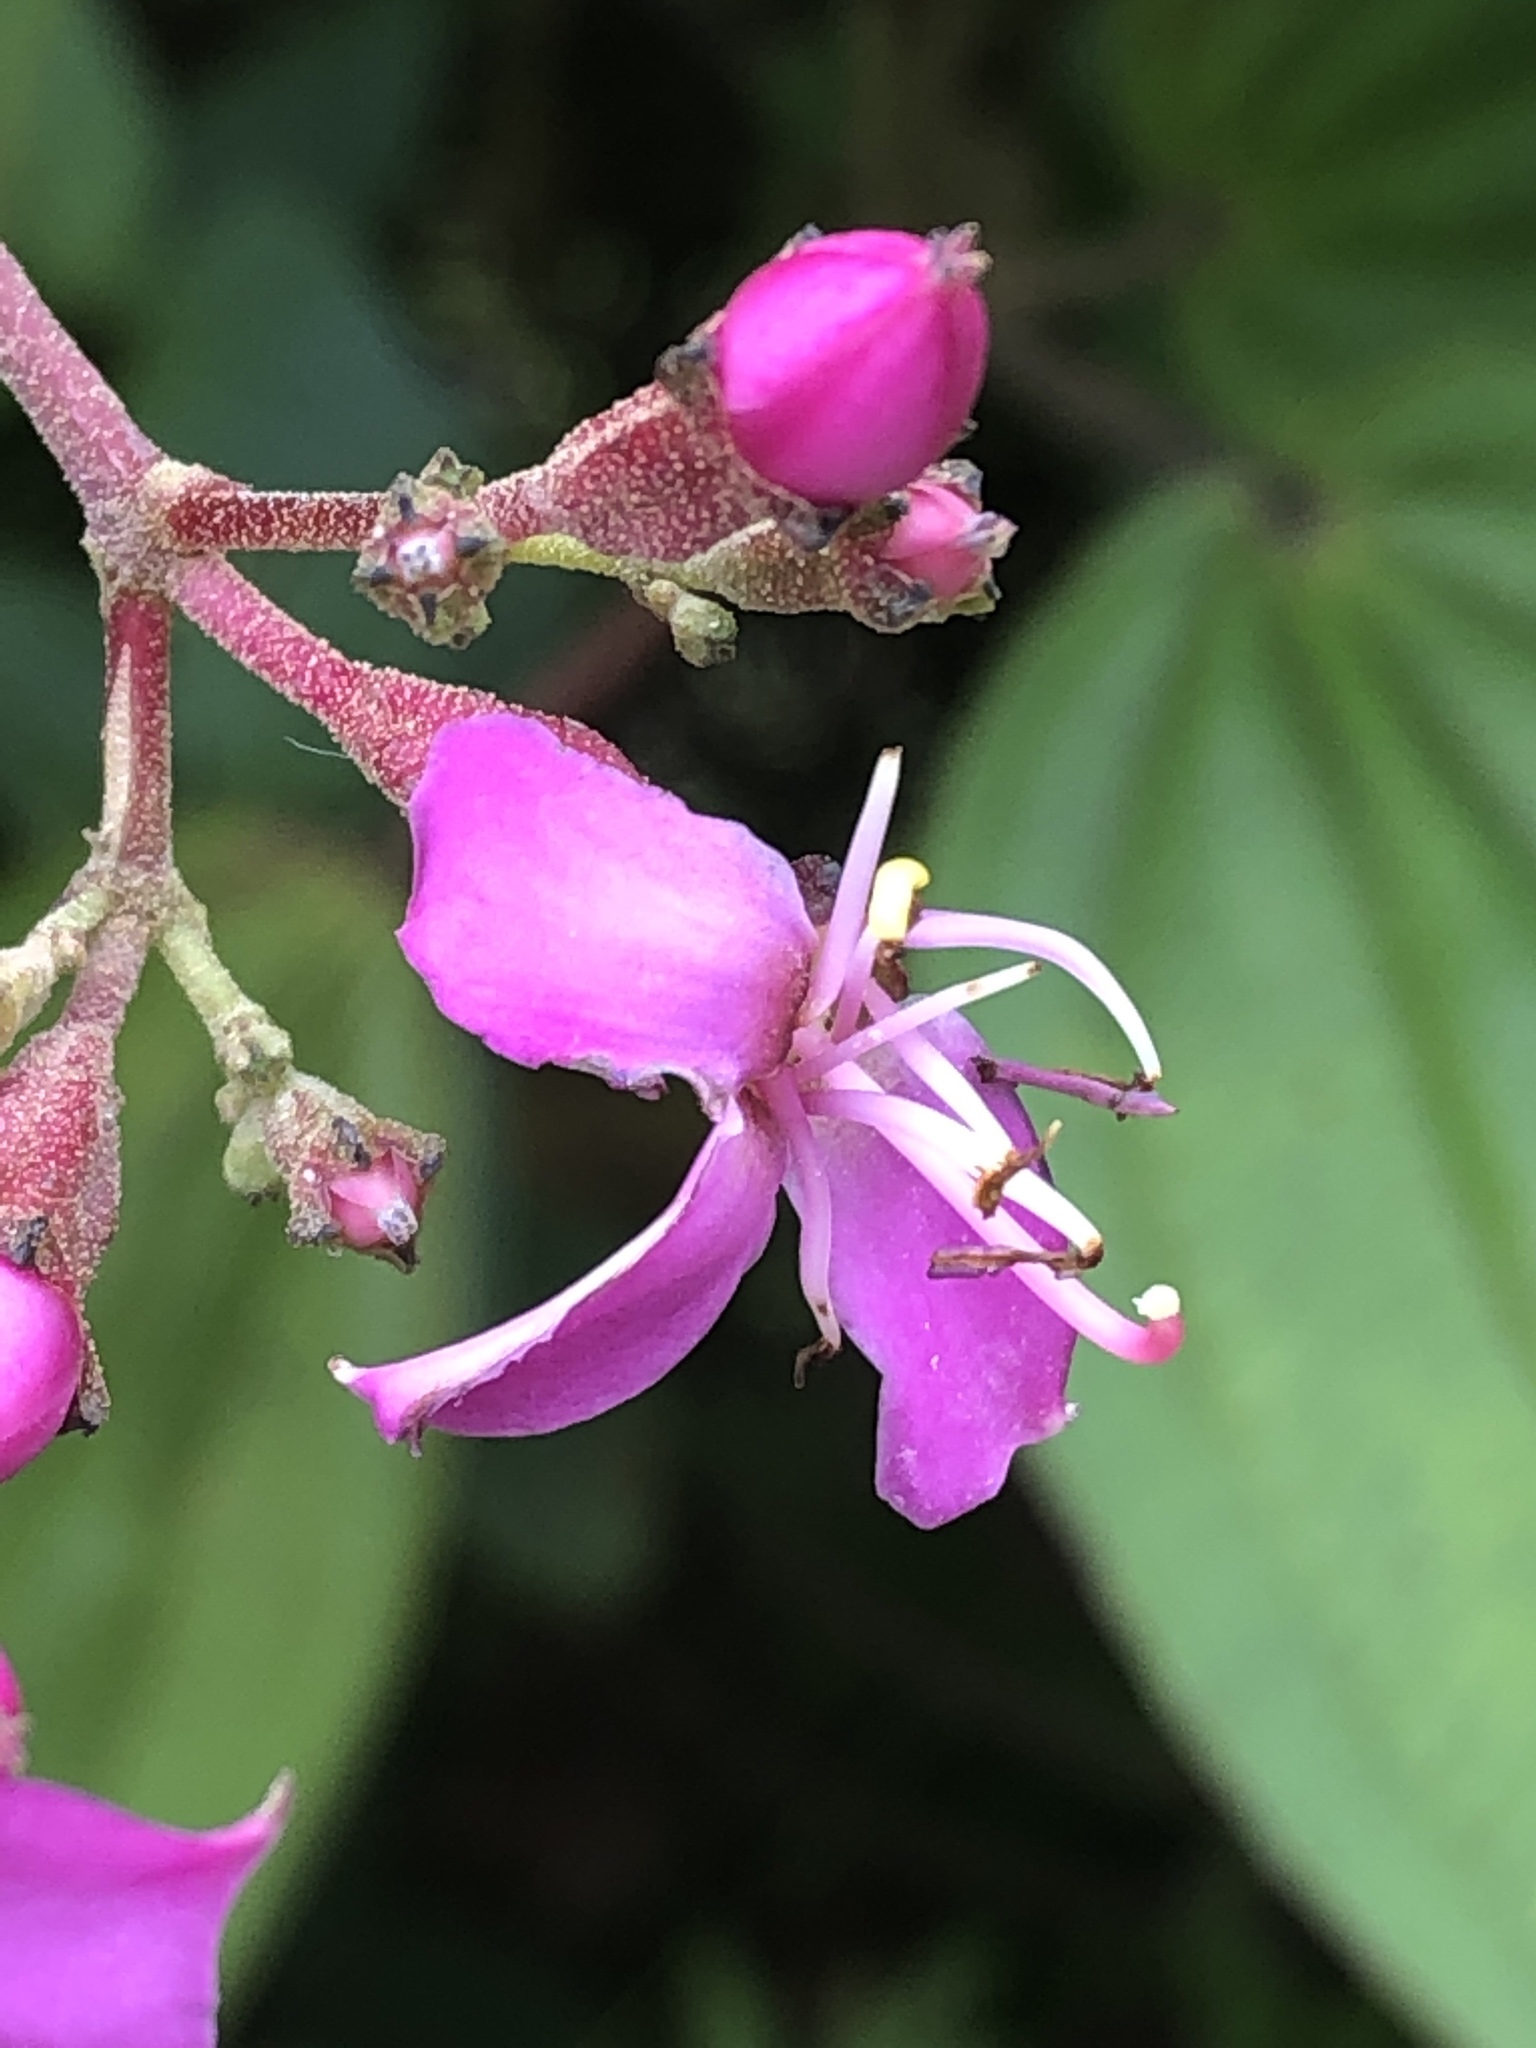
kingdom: Plantae
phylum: Tracheophyta
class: Magnoliopsida
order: Myrtales
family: Melastomataceae
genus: Oxyspora
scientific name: Oxyspora paniculata
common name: Bristletips
